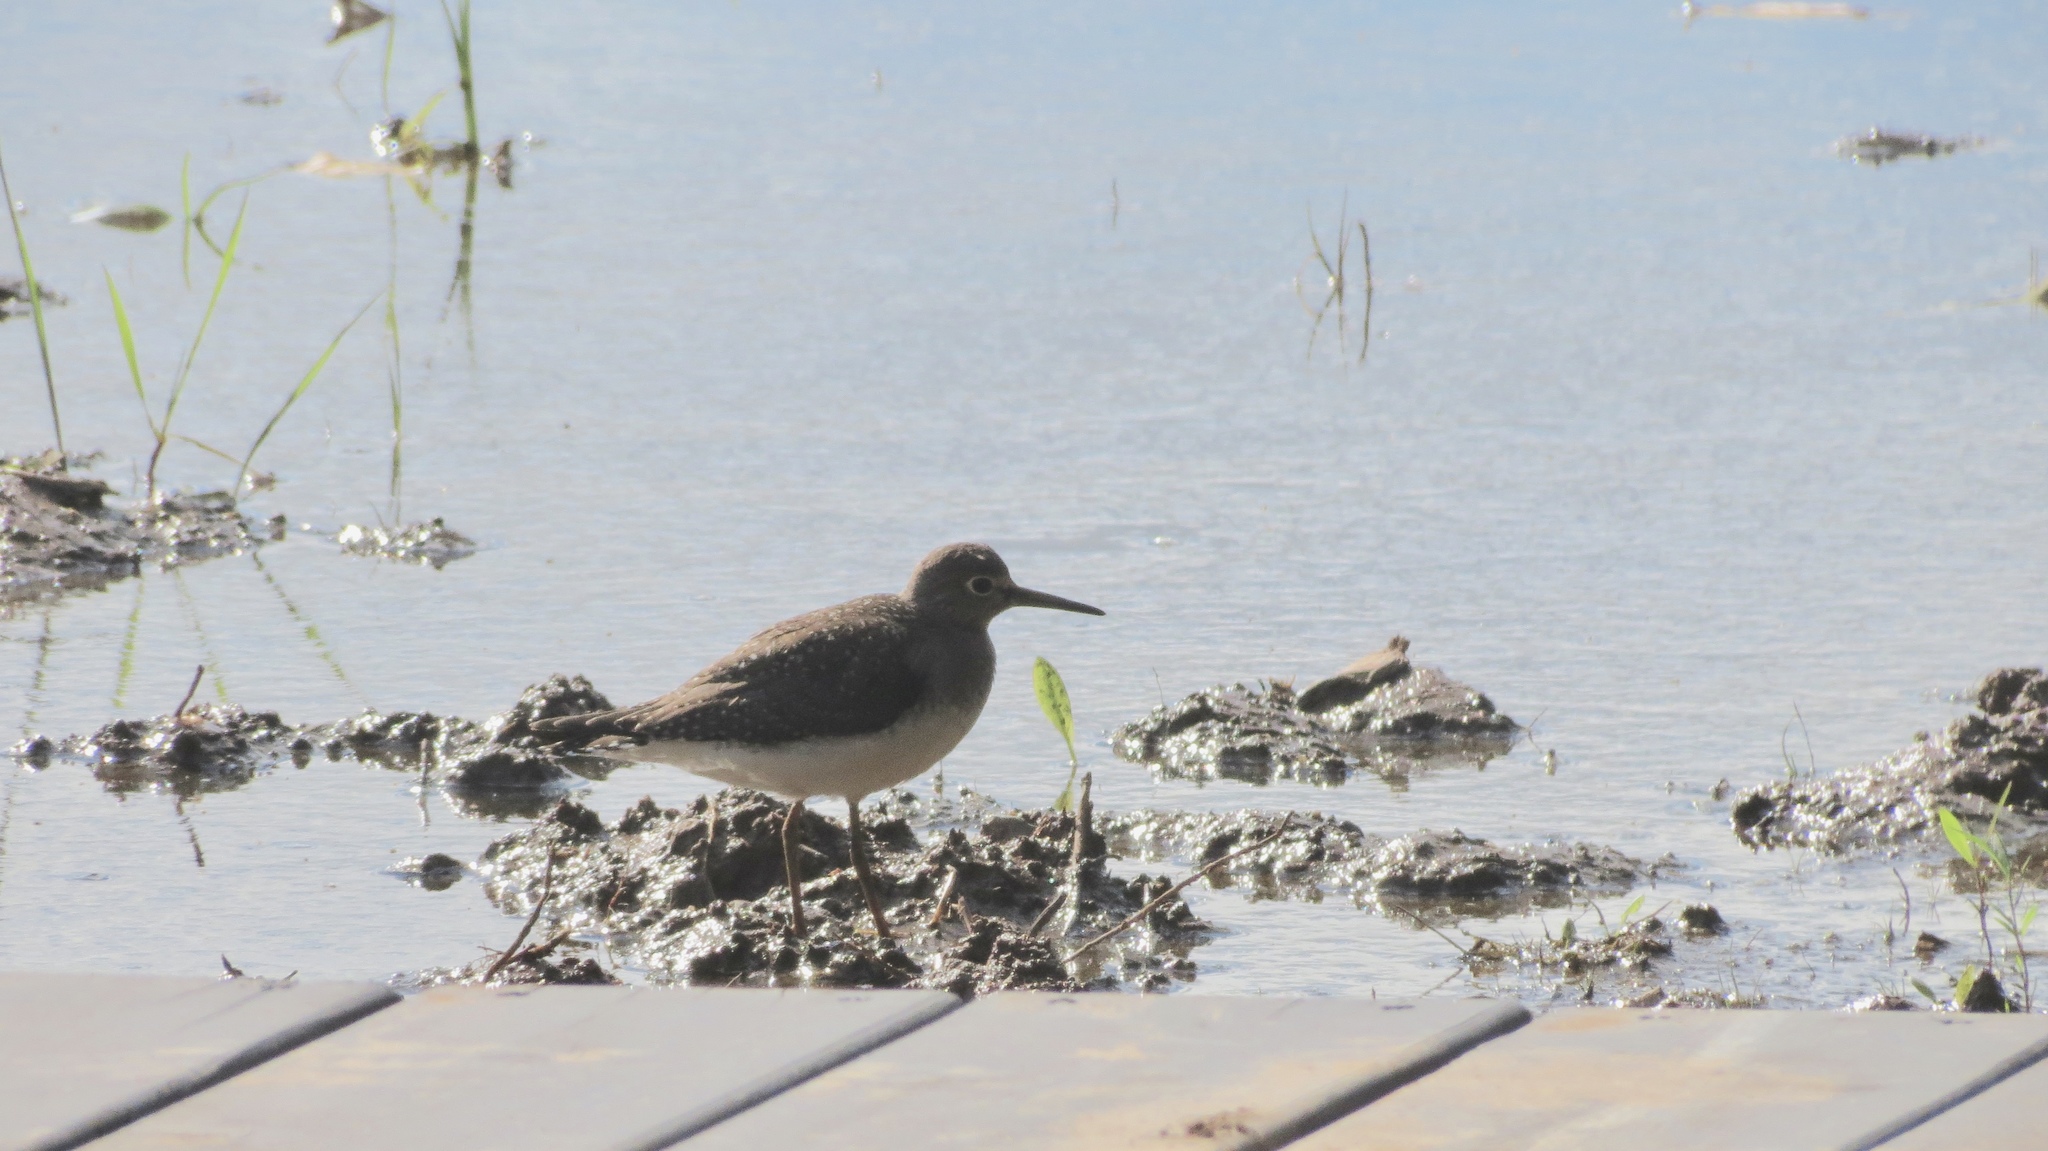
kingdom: Animalia
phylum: Chordata
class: Aves
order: Charadriiformes
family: Scolopacidae
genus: Tringa
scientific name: Tringa solitaria
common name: Solitary sandpiper
